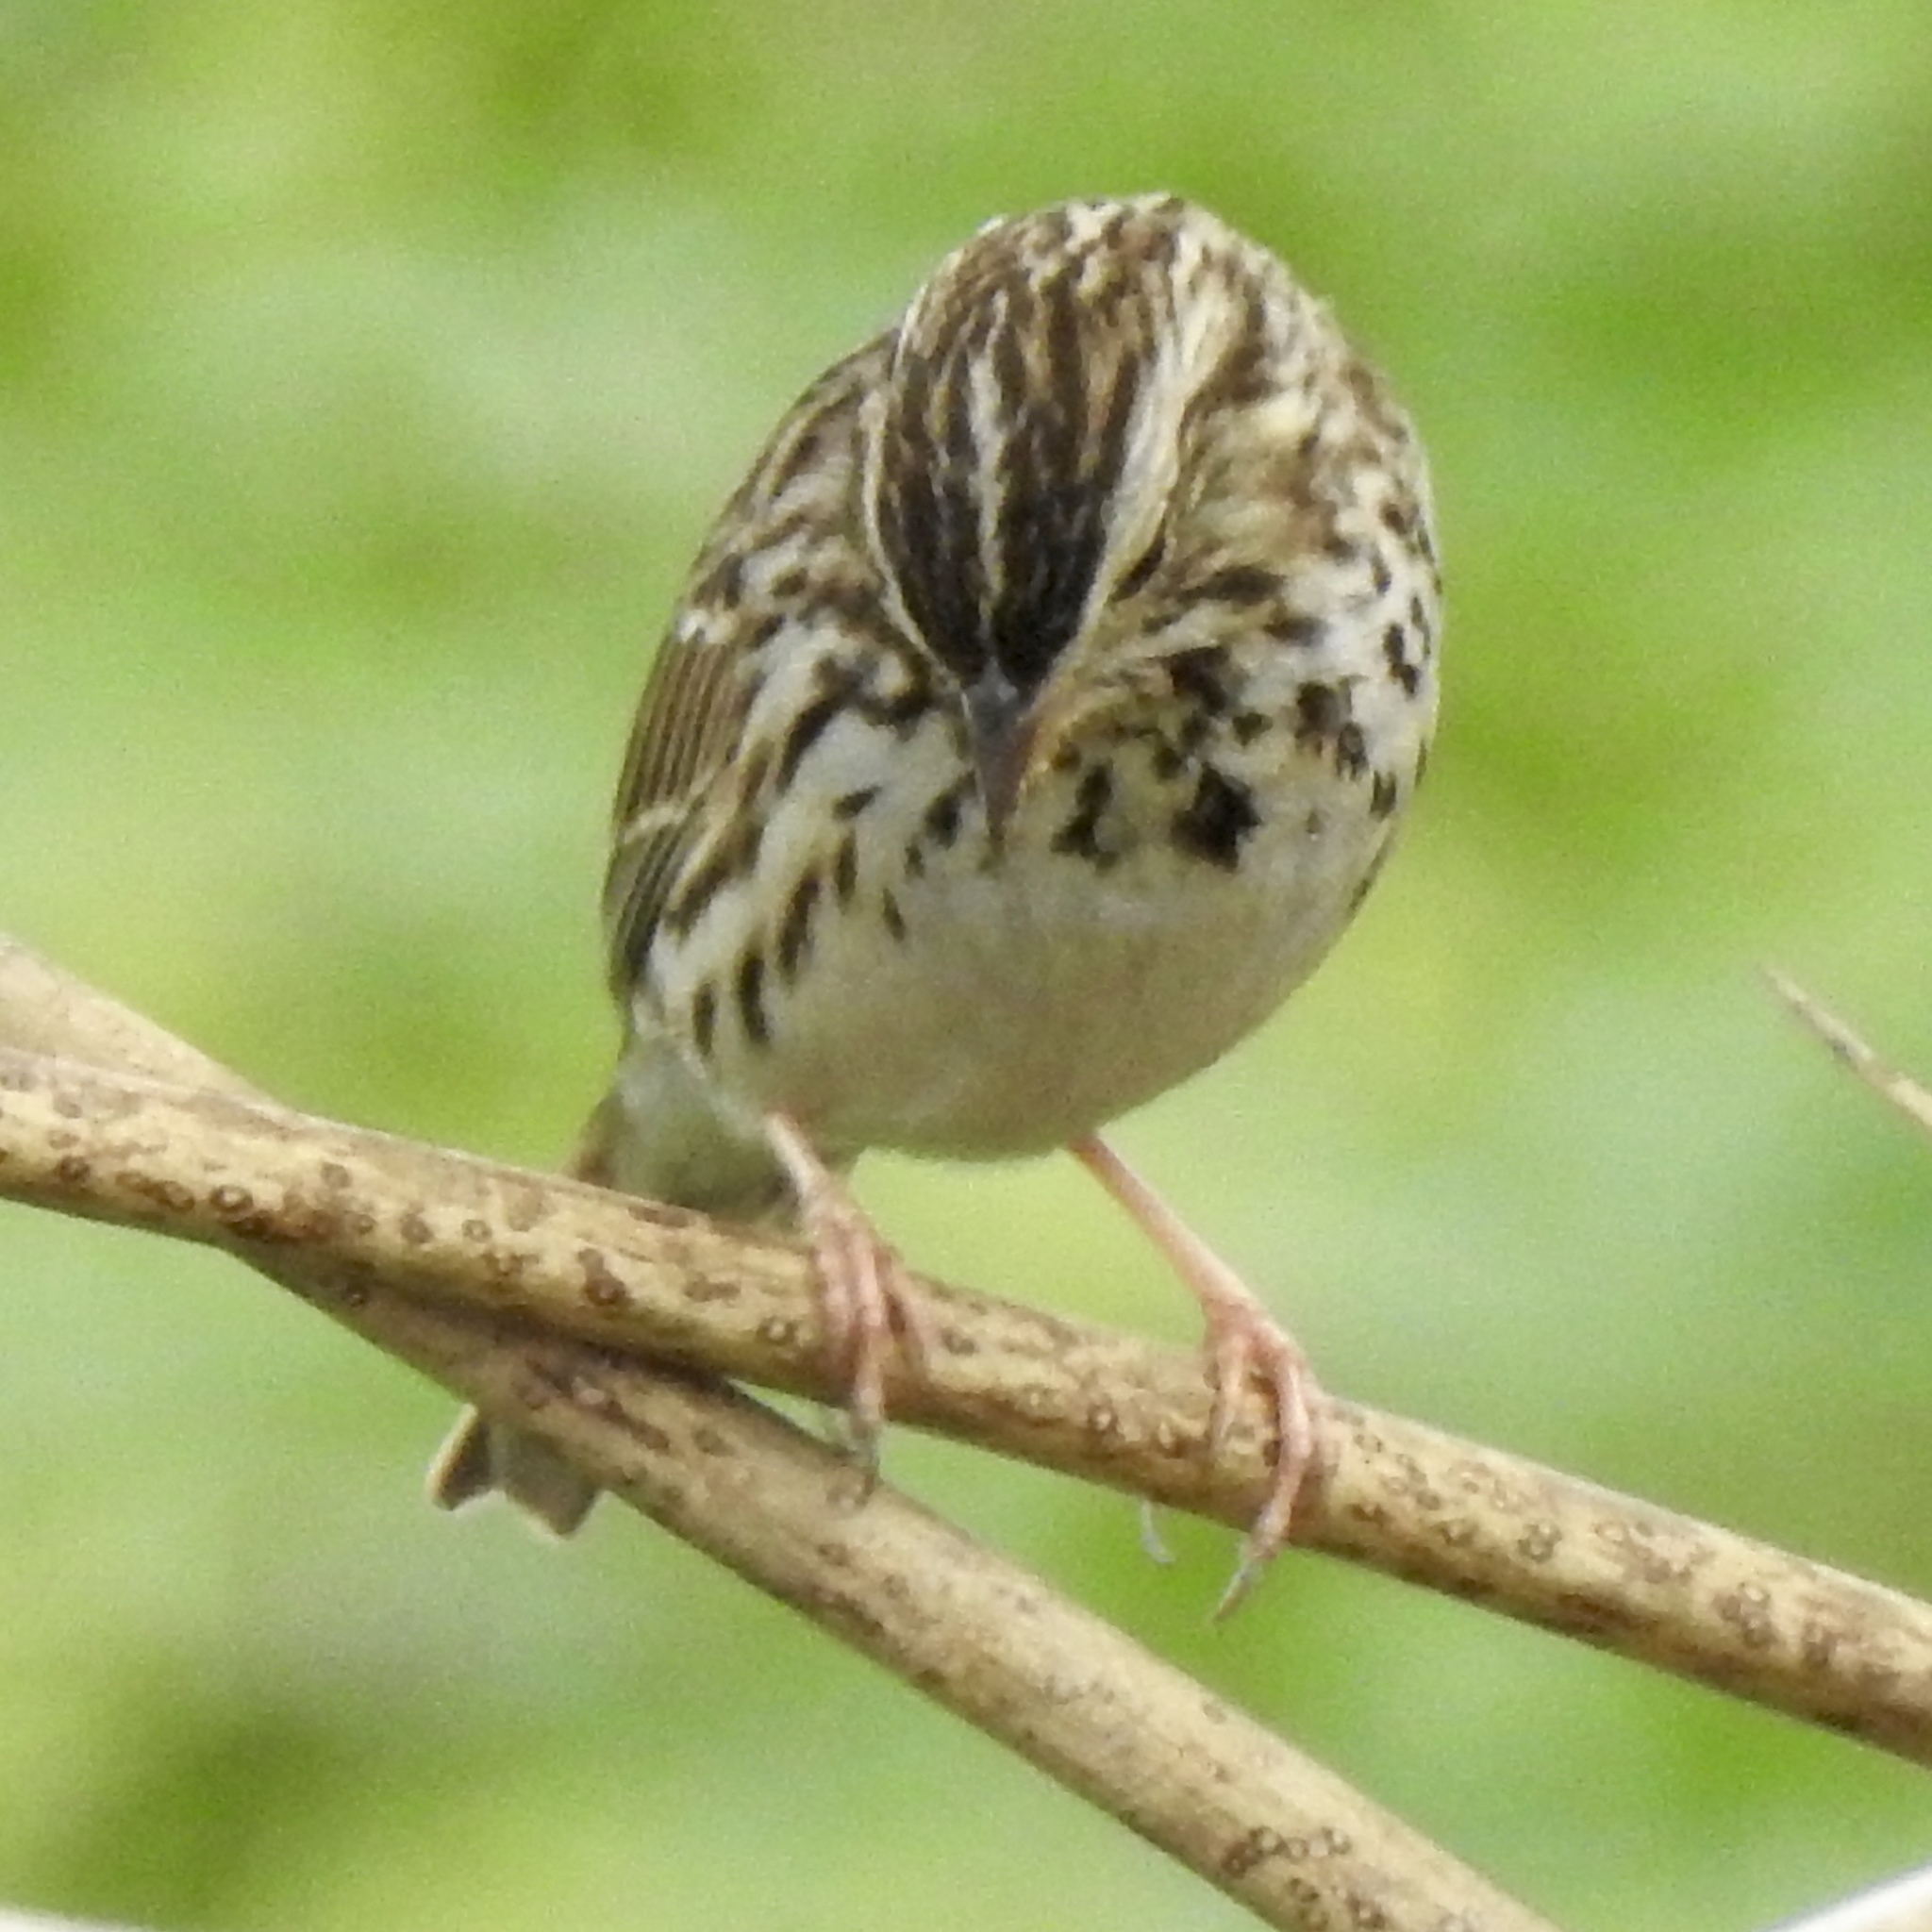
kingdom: Animalia
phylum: Chordata
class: Aves
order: Passeriformes
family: Passerellidae
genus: Passerculus
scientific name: Passerculus sandwichensis
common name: Savannah sparrow
